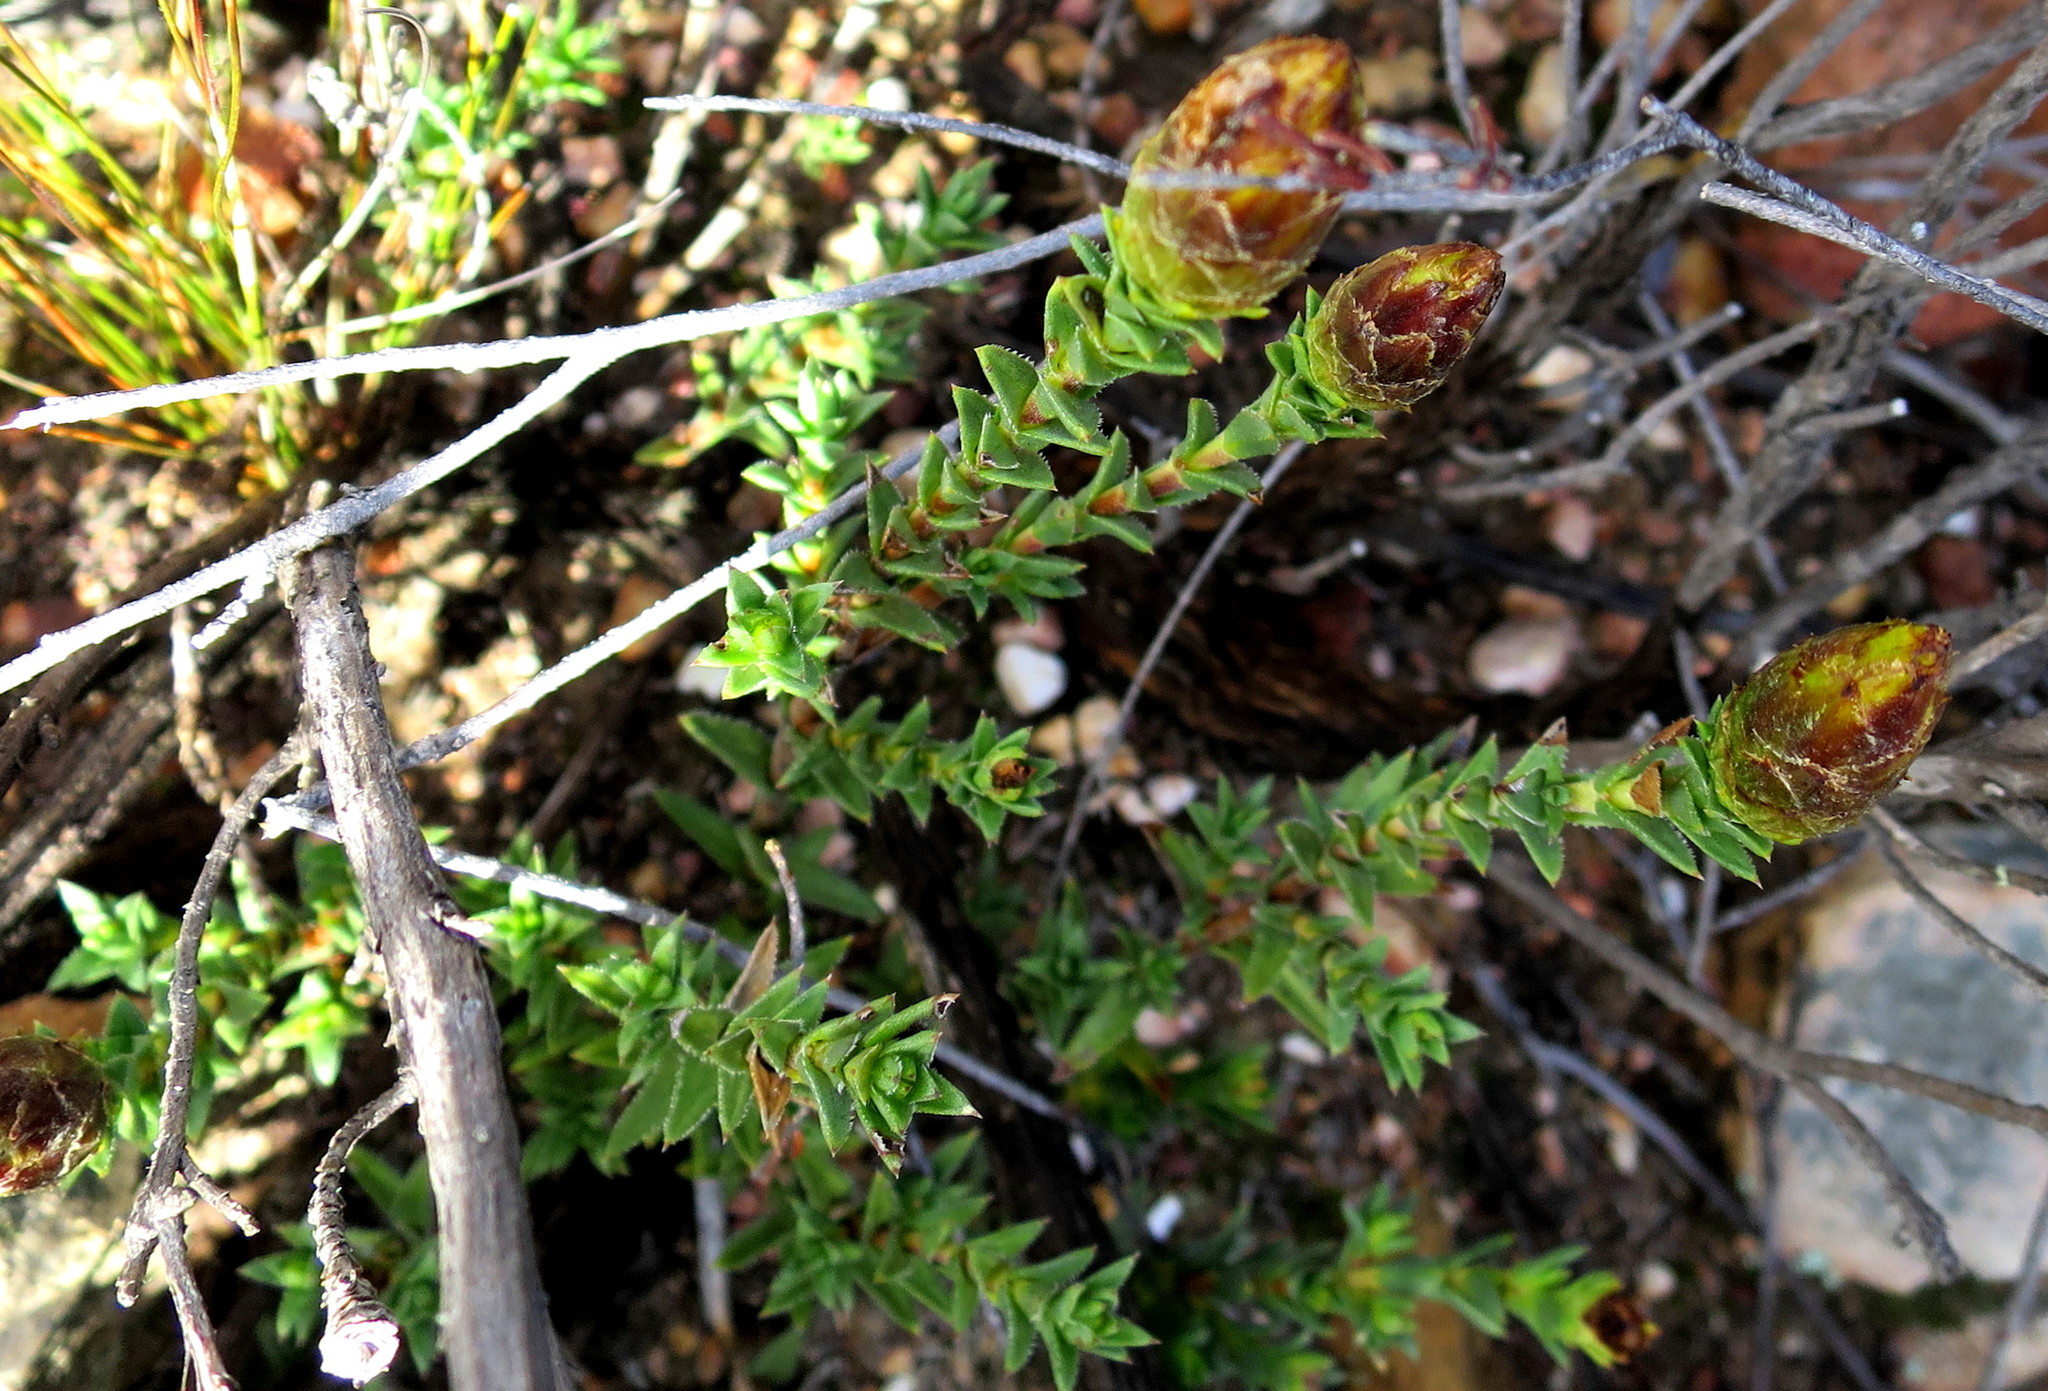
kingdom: Plantae
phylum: Tracheophyta
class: Magnoliopsida
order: Asterales
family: Asteraceae
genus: Pteronia
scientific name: Pteronia elongata
